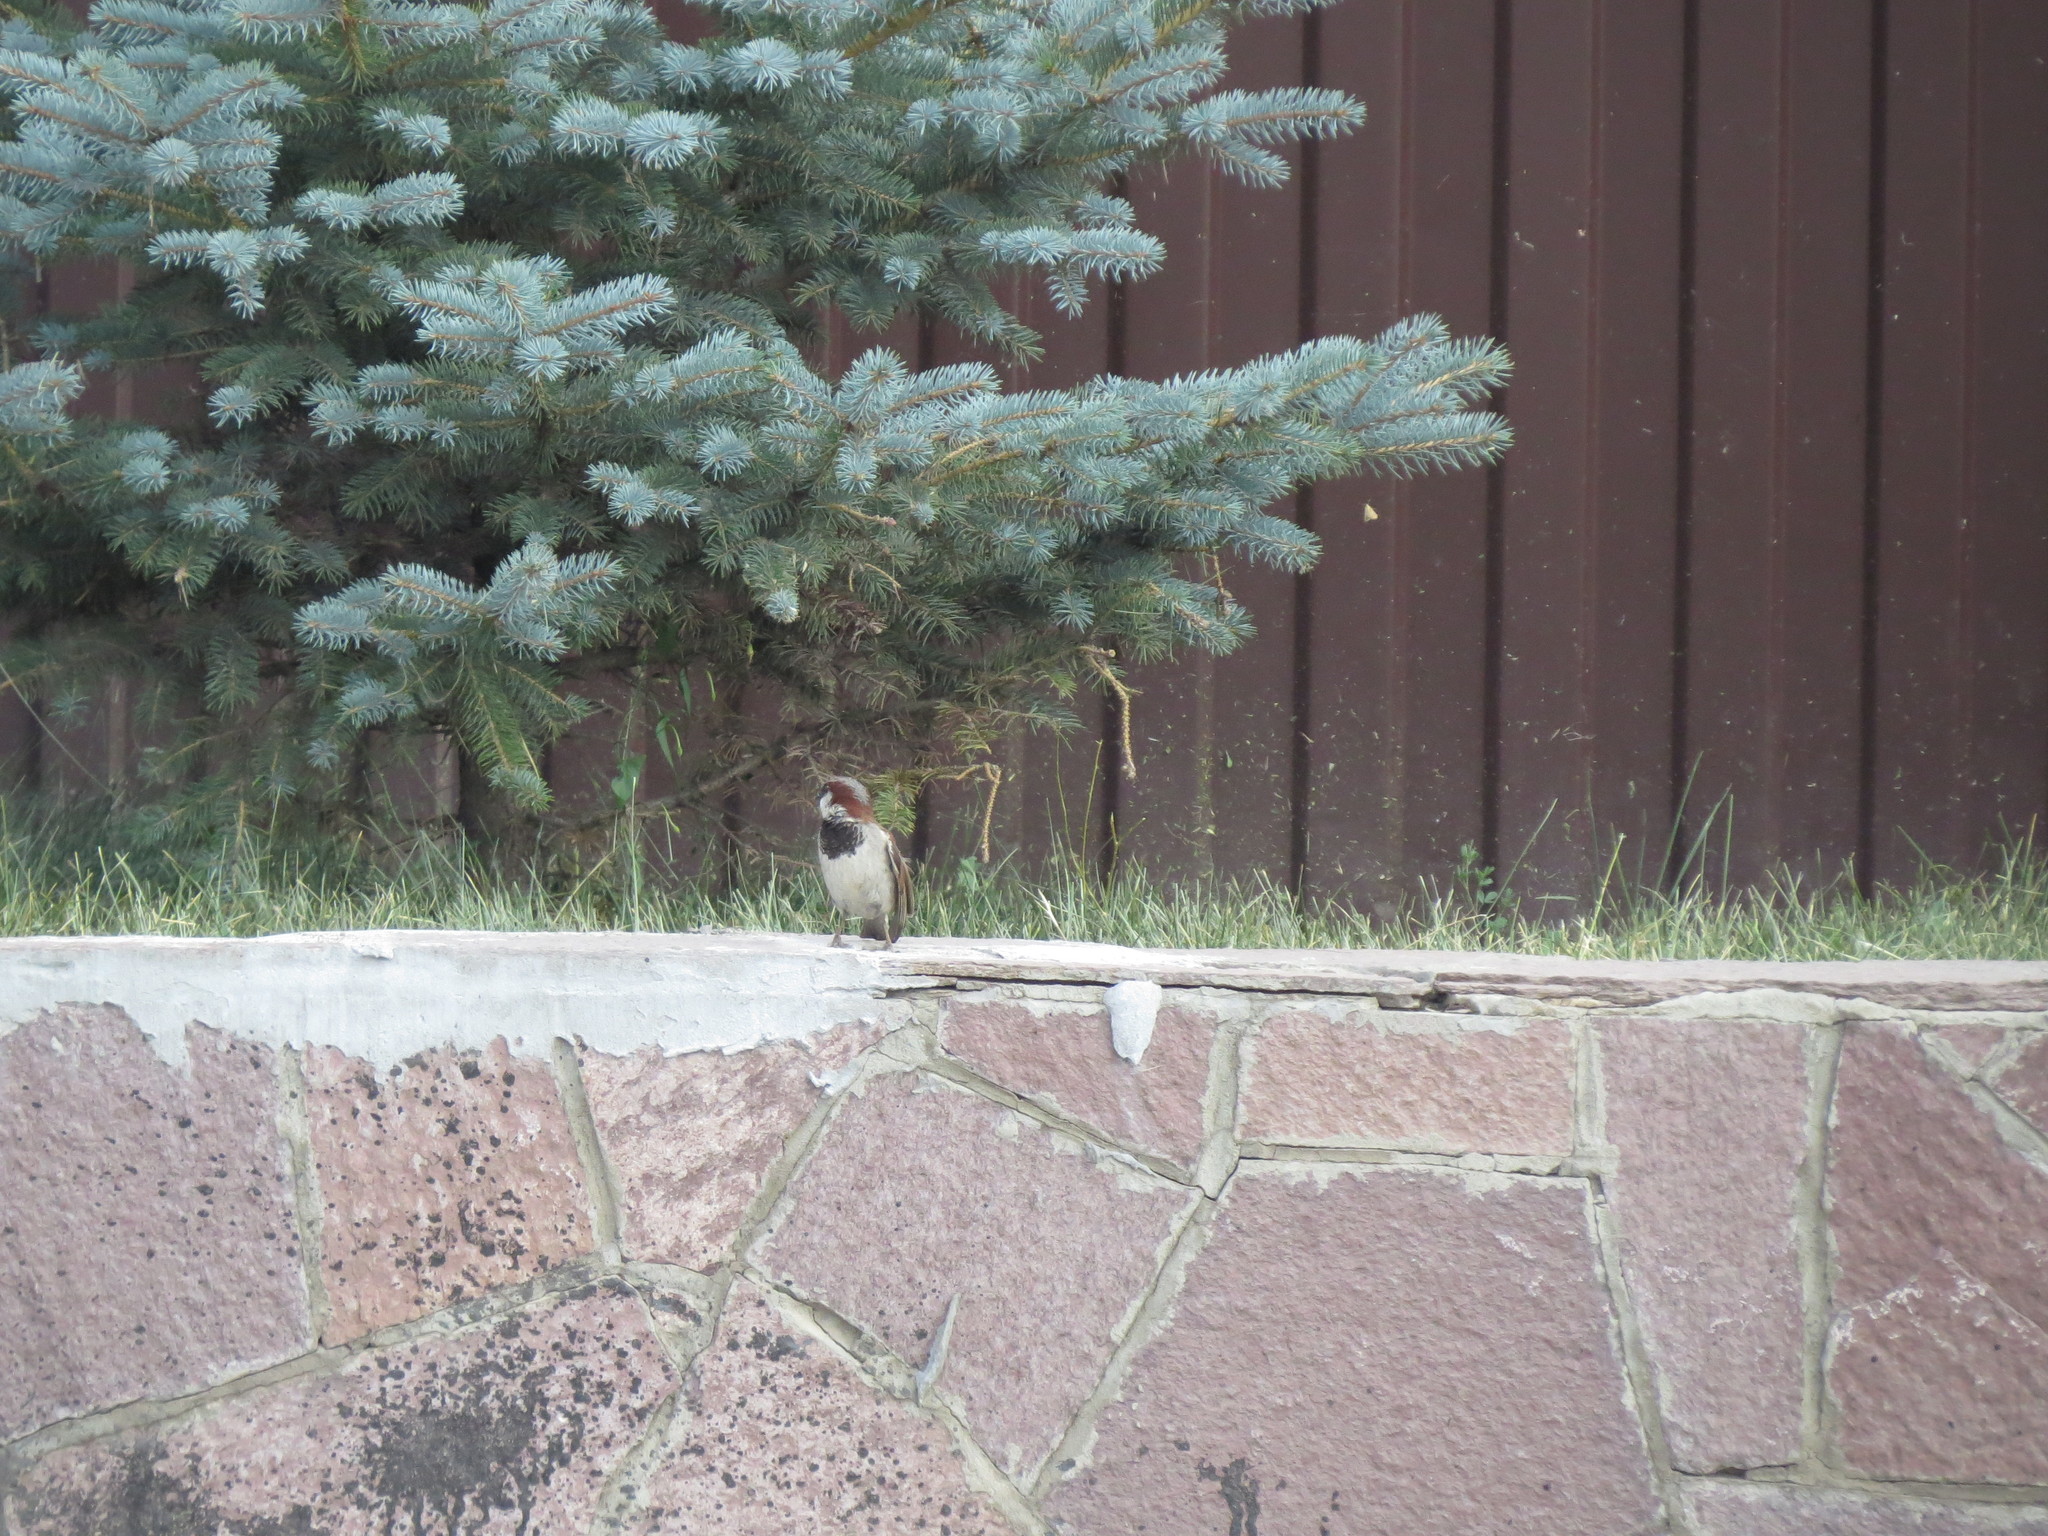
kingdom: Animalia
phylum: Chordata
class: Aves
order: Passeriformes
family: Passeridae
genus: Passer
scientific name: Passer domesticus
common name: House sparrow
